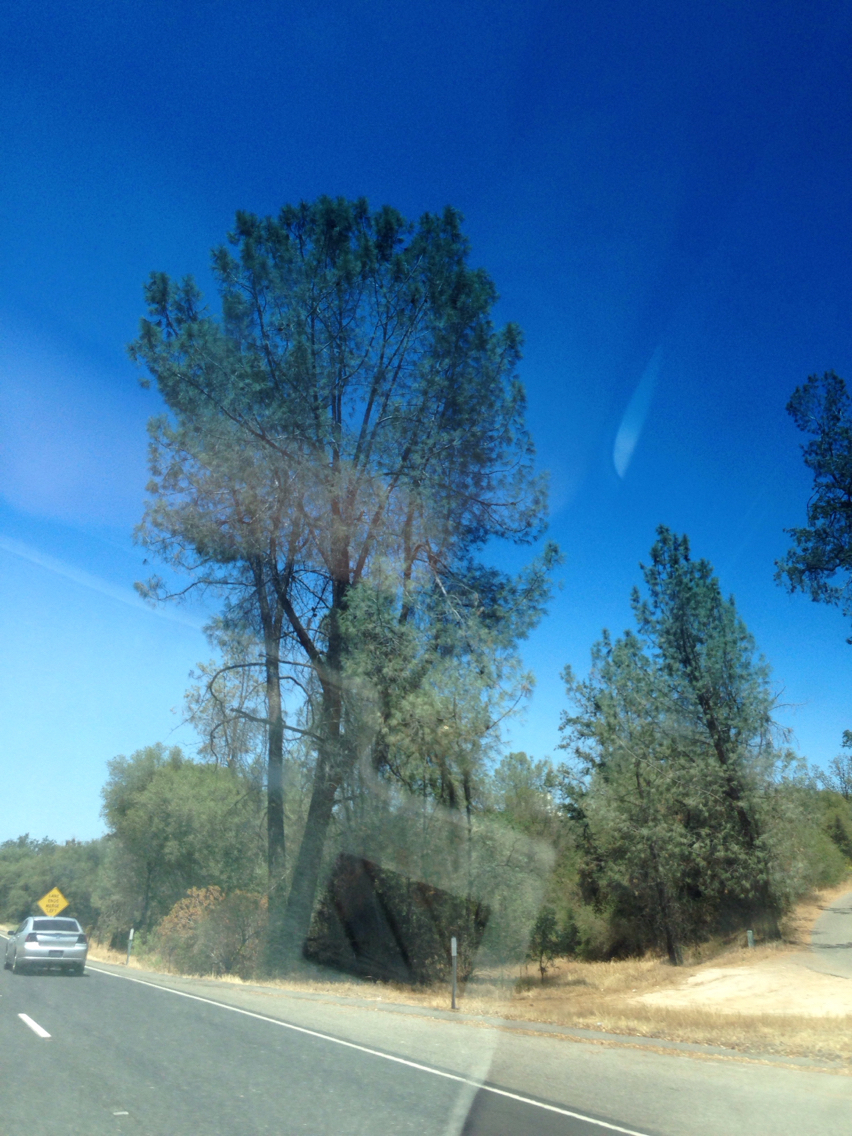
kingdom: Plantae
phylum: Tracheophyta
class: Pinopsida
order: Pinales
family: Pinaceae
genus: Pinus
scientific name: Pinus sabiniana
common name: Bull pine
